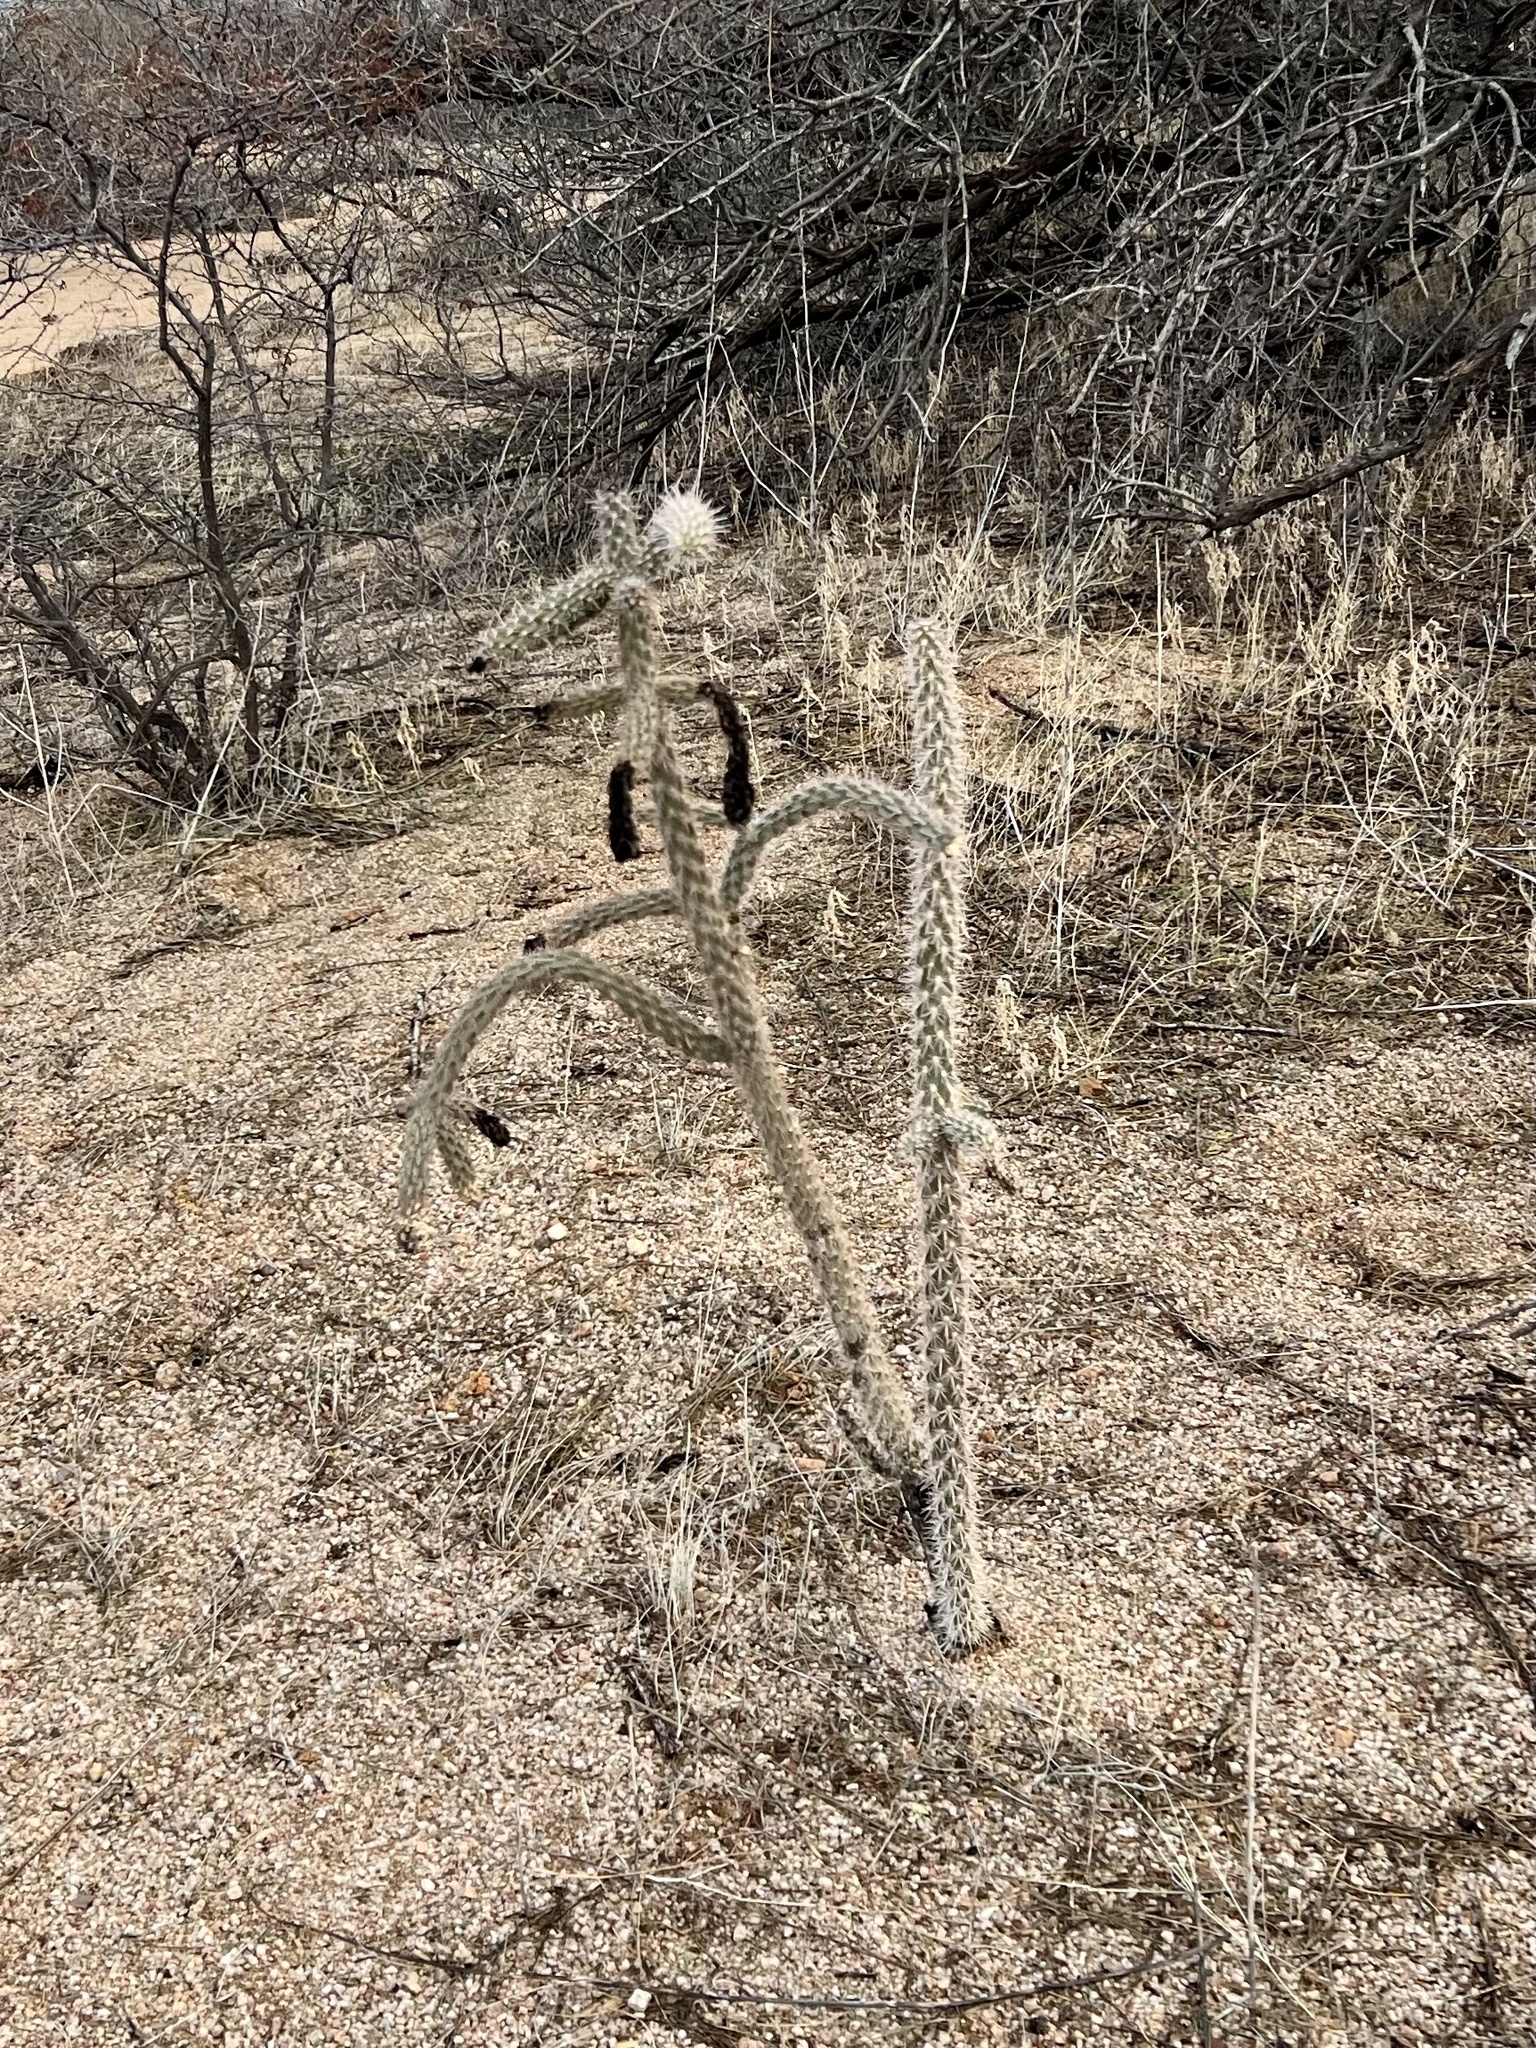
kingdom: Plantae
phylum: Tracheophyta
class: Magnoliopsida
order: Caryophyllales
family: Cactaceae
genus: Cylindropuntia
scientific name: Cylindropuntia imbricata
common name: Candelabrum cactus
